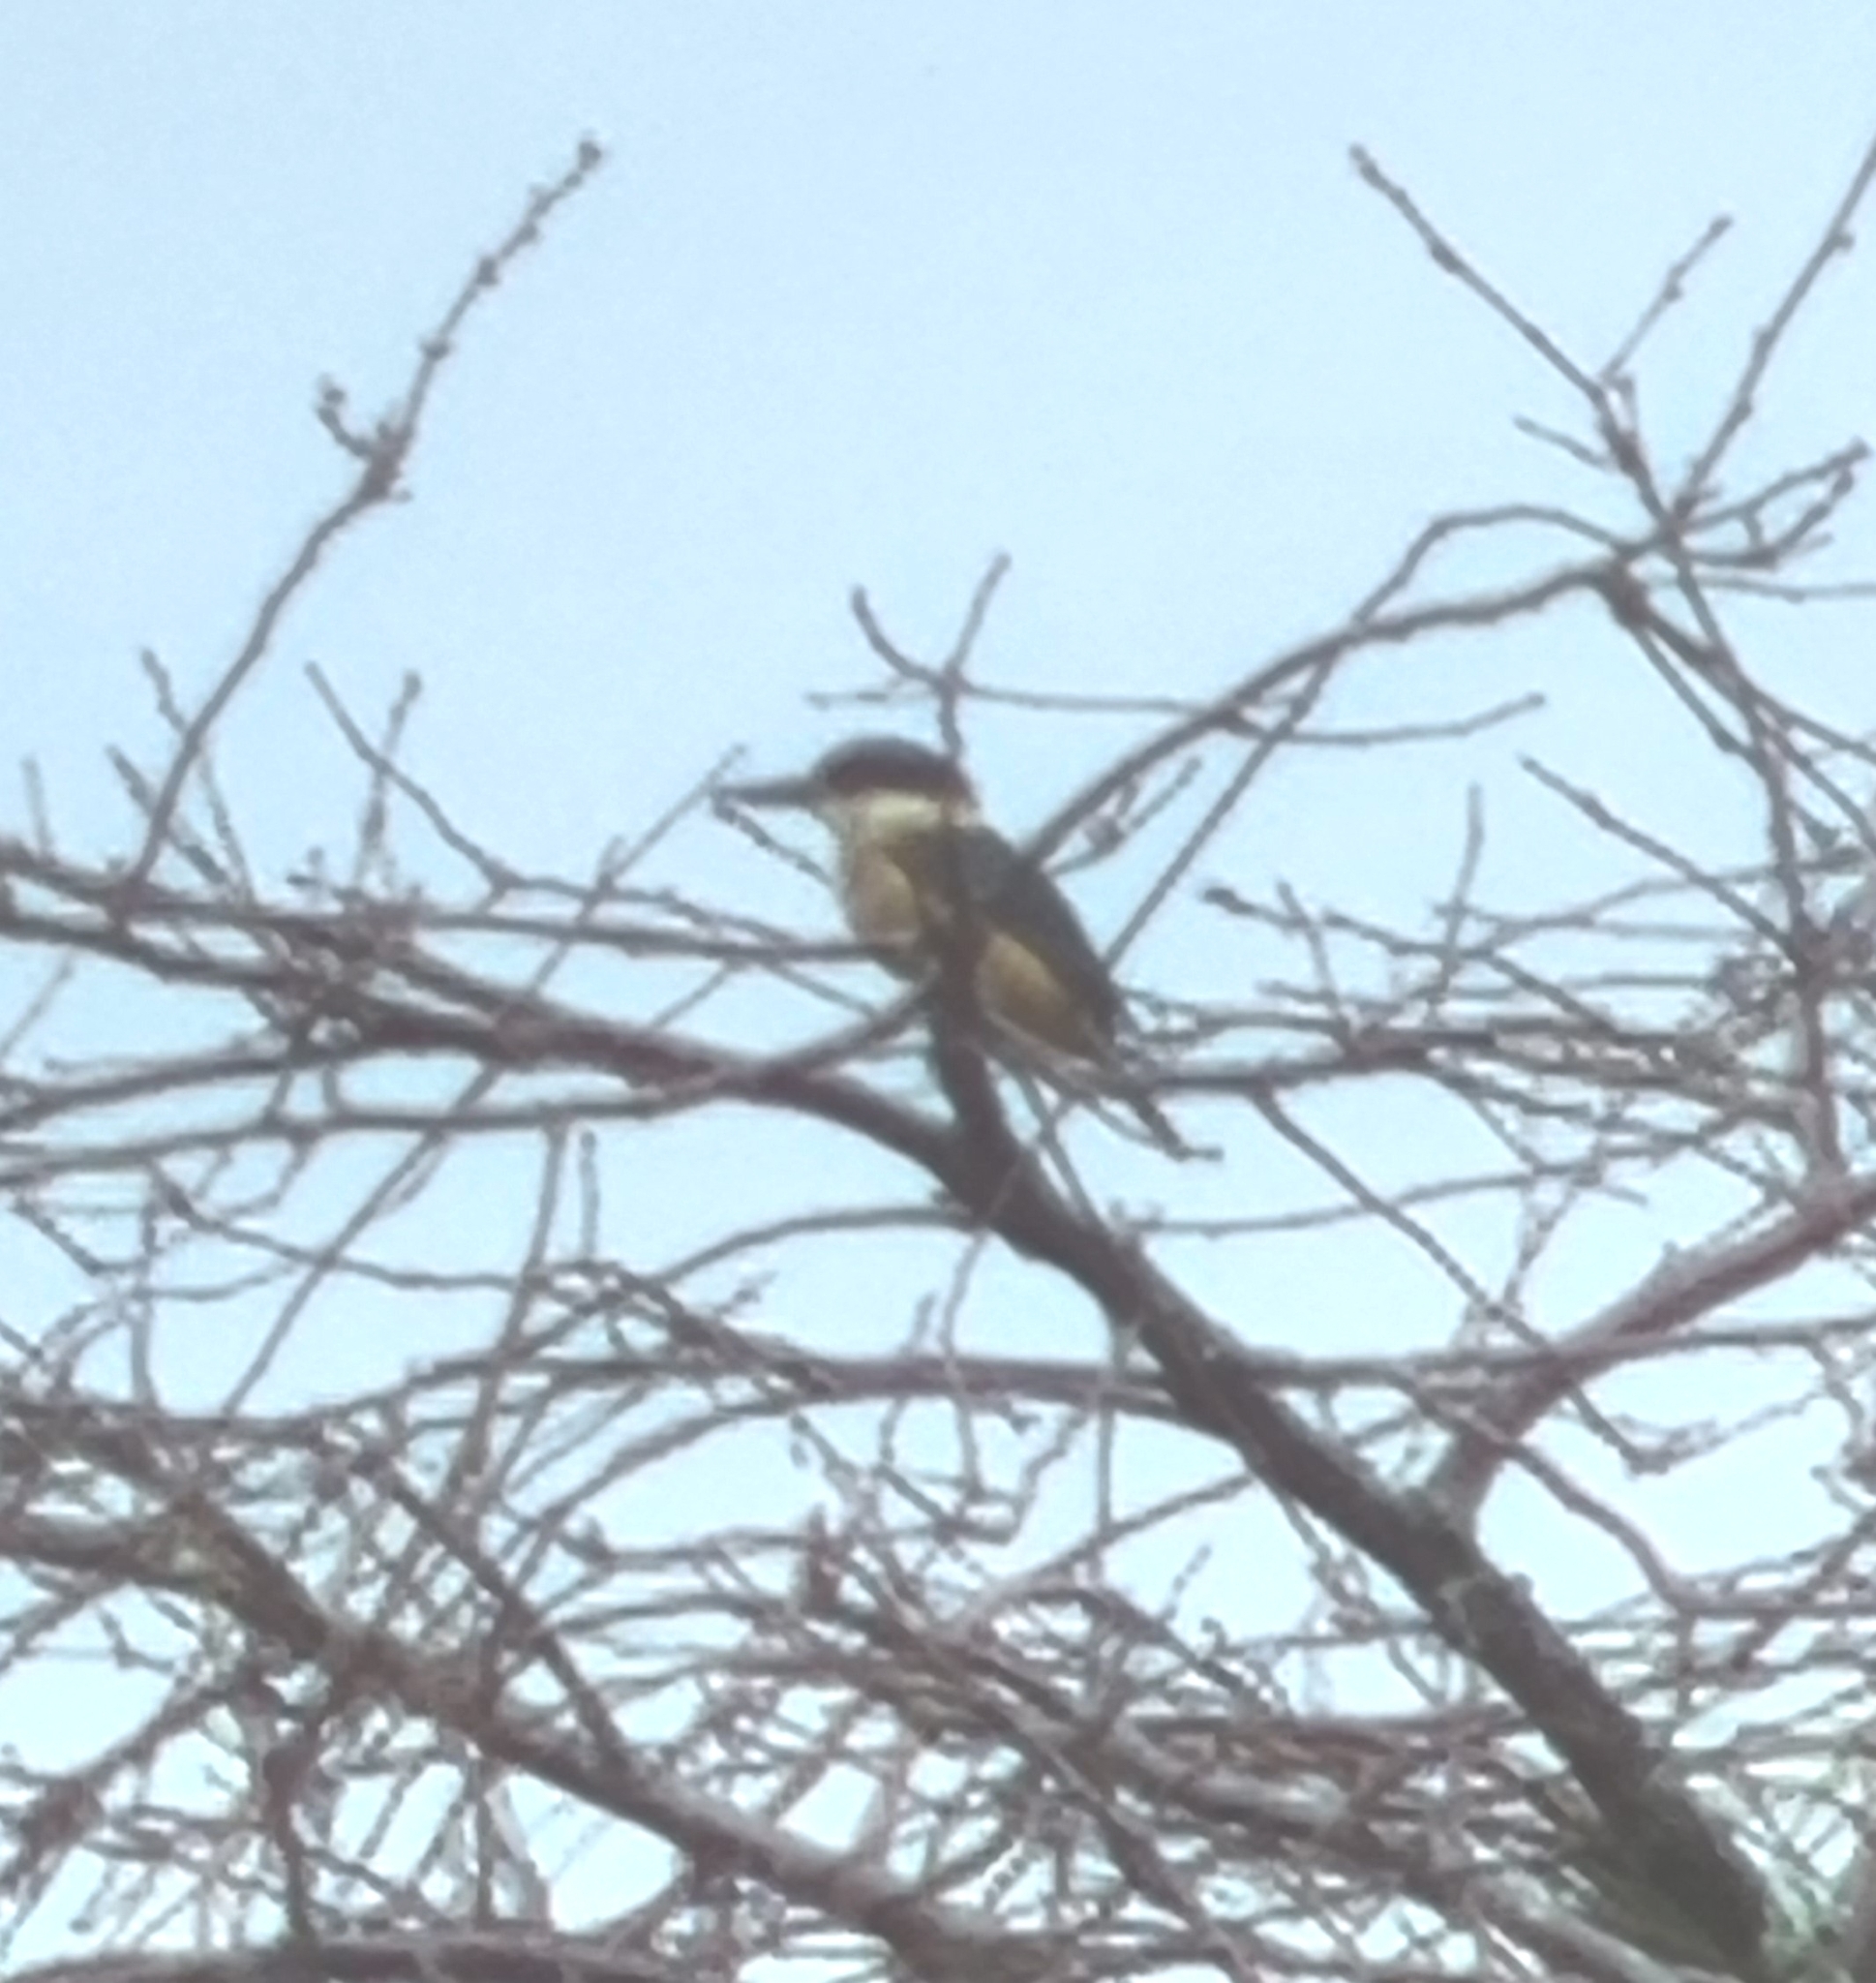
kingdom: Animalia
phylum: Chordata
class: Aves
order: Coraciiformes
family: Alcedinidae
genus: Todiramphus
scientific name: Todiramphus sanctus
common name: Sacred kingfisher
